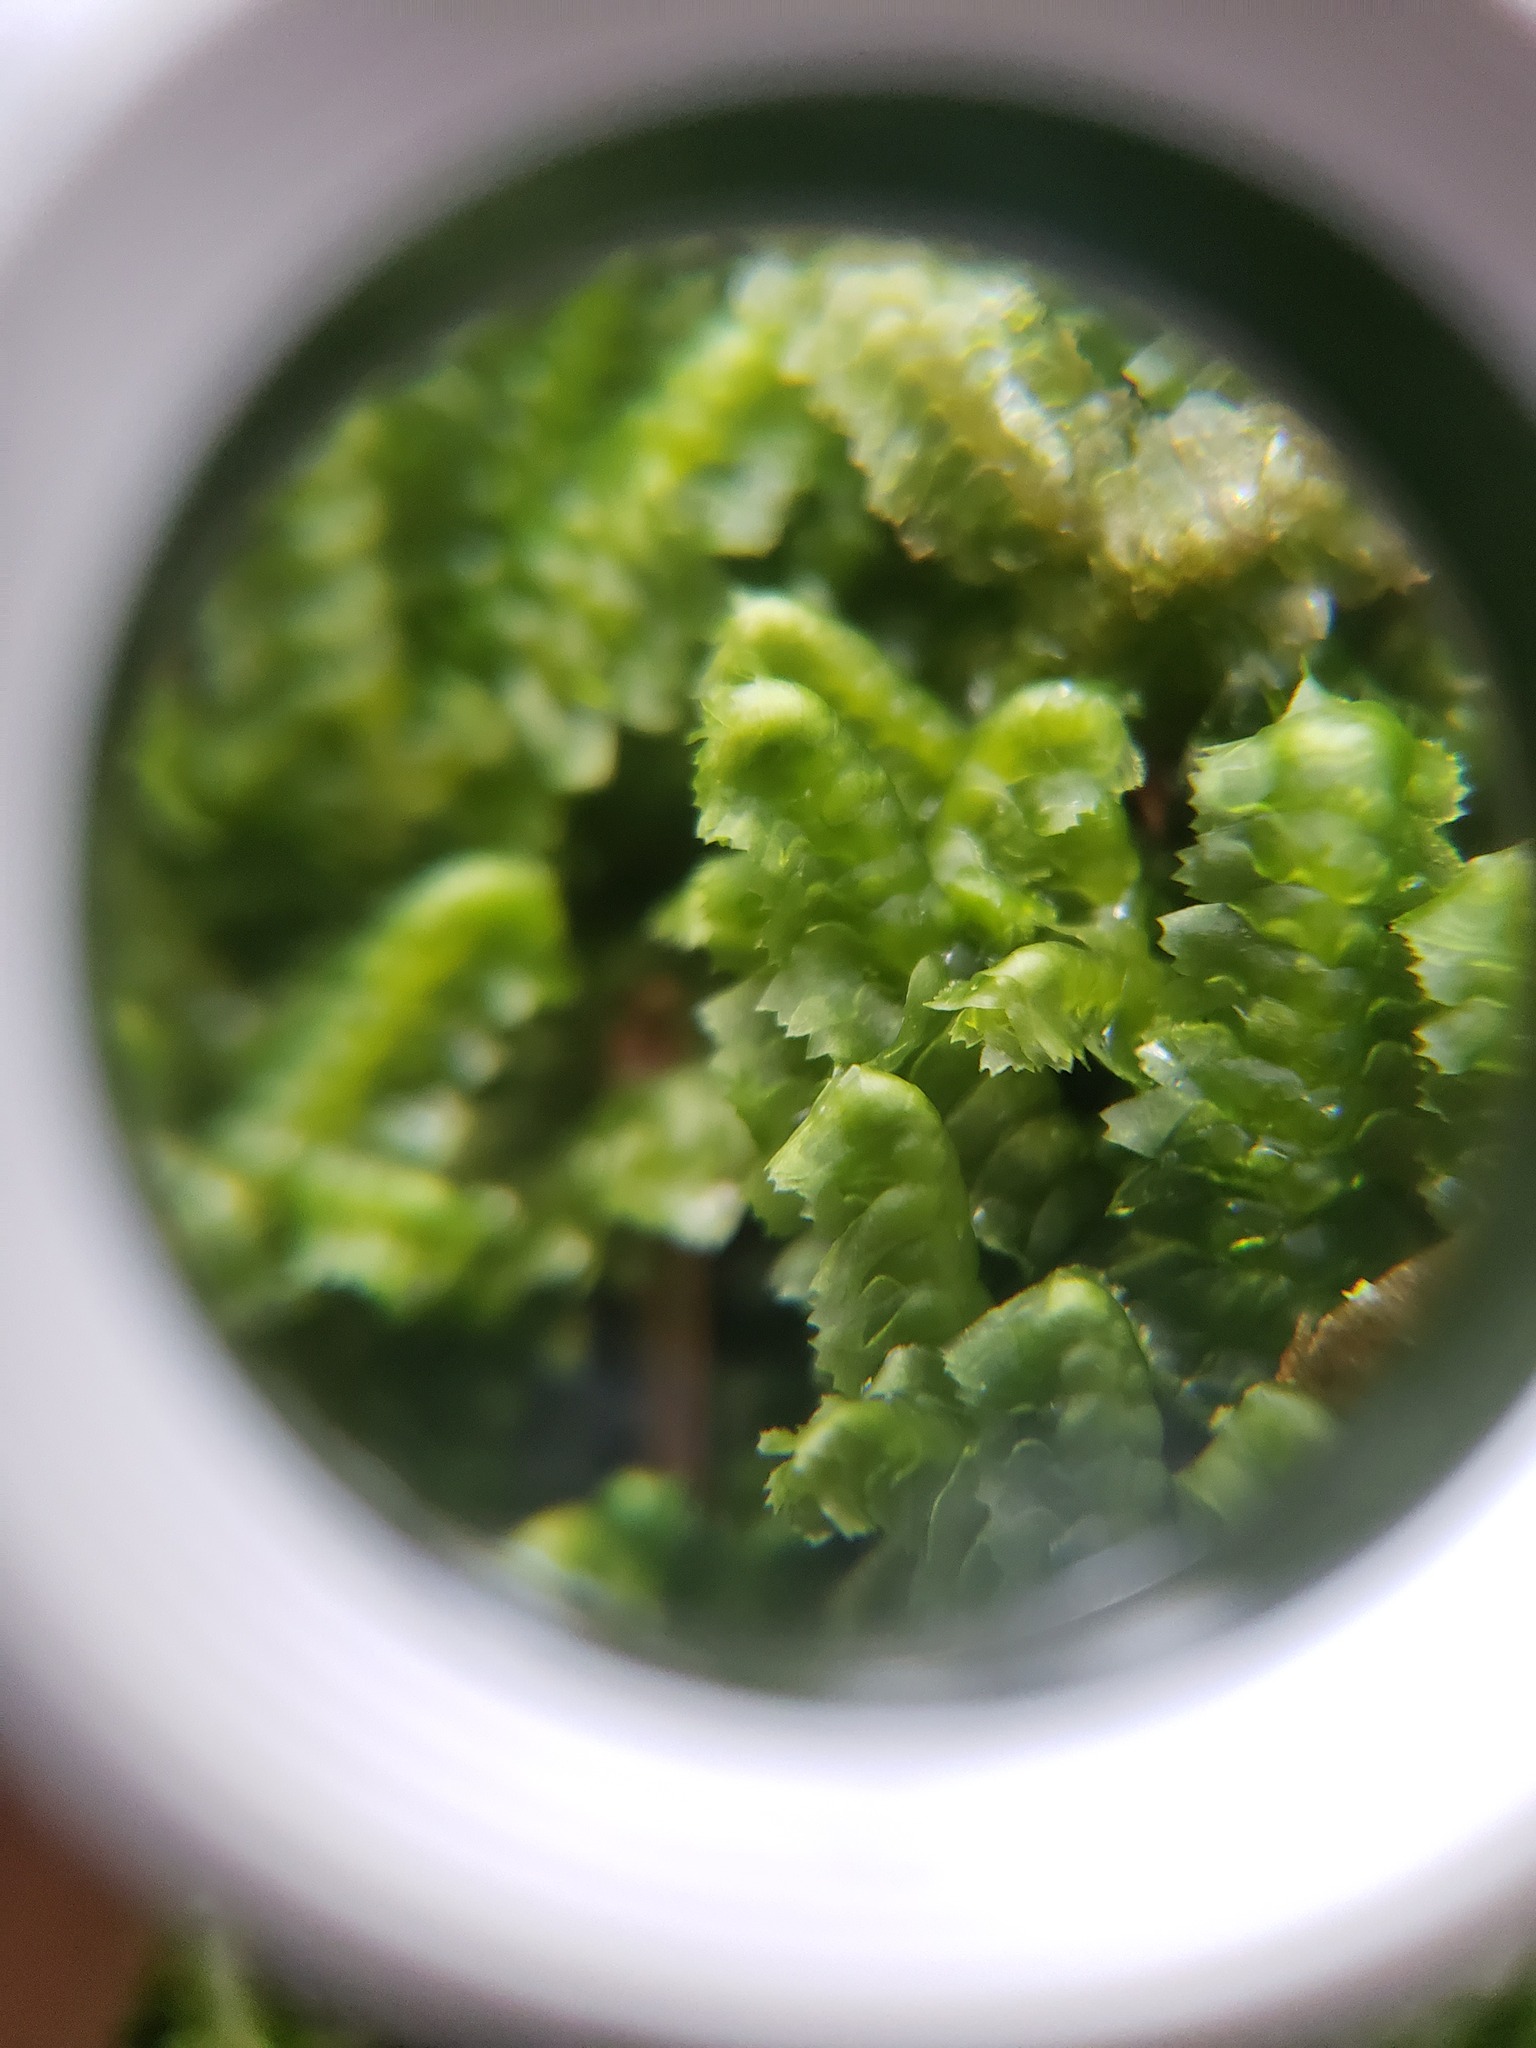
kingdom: Plantae
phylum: Marchantiophyta
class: Jungermanniopsida
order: Jungermanniales
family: Lepidoziaceae
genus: Bazzania
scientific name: Bazzania trilobata
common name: Three-lobed whipwort
